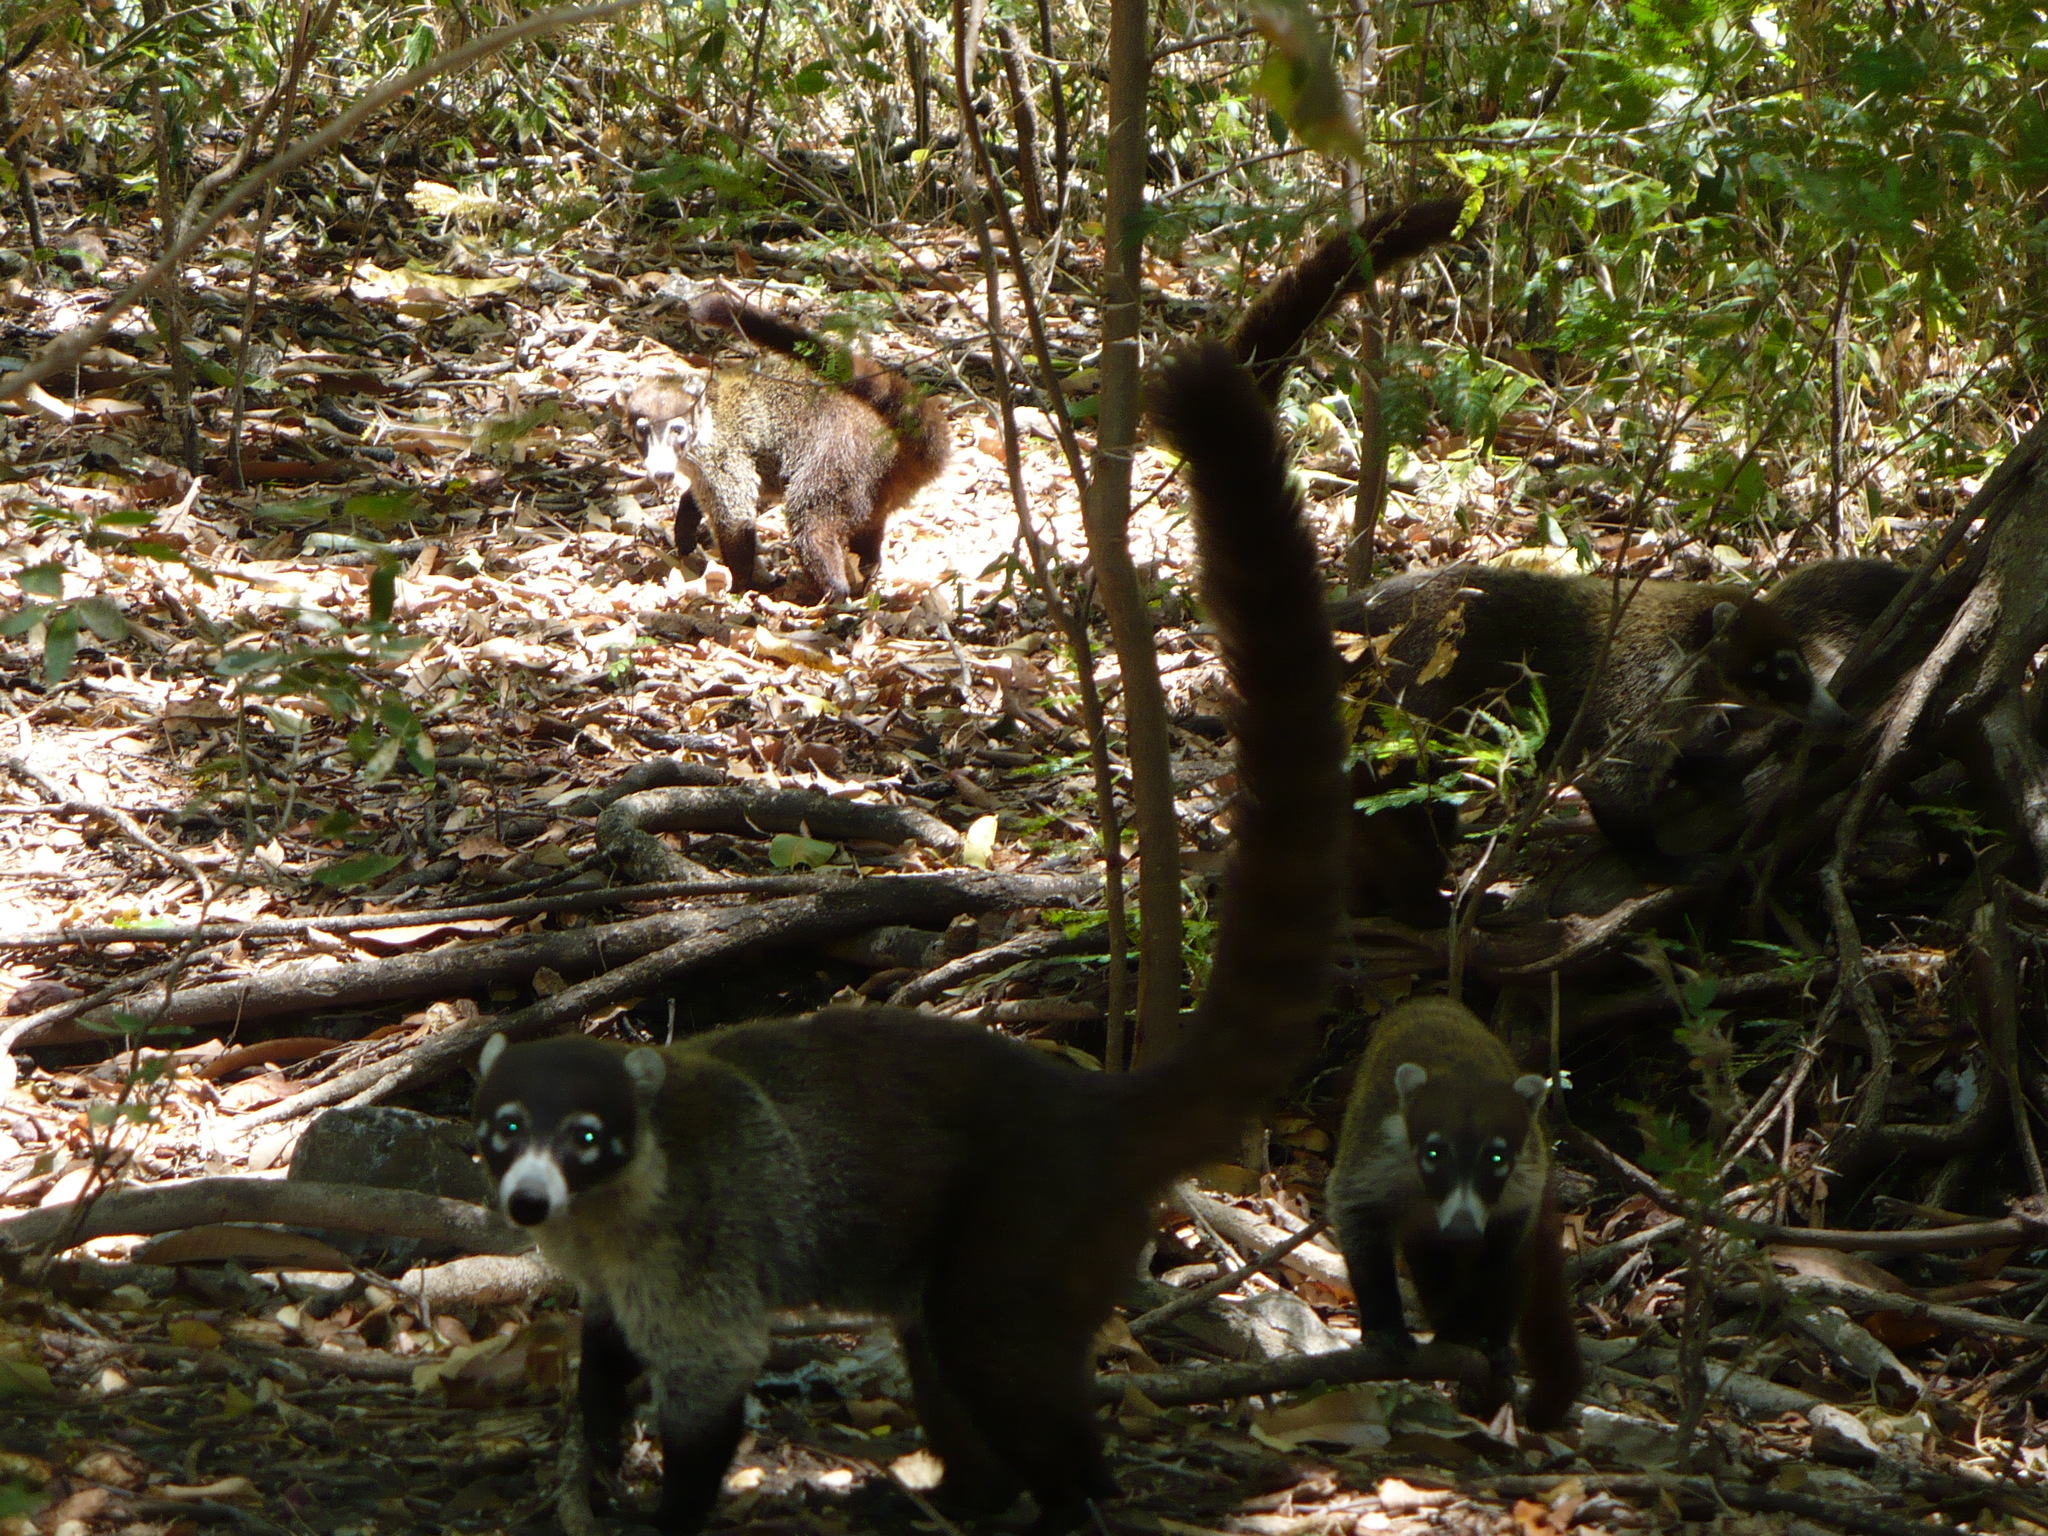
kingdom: Animalia
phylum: Chordata
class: Mammalia
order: Carnivora
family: Procyonidae
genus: Nasua
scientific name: Nasua narica
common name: White-nosed coati
